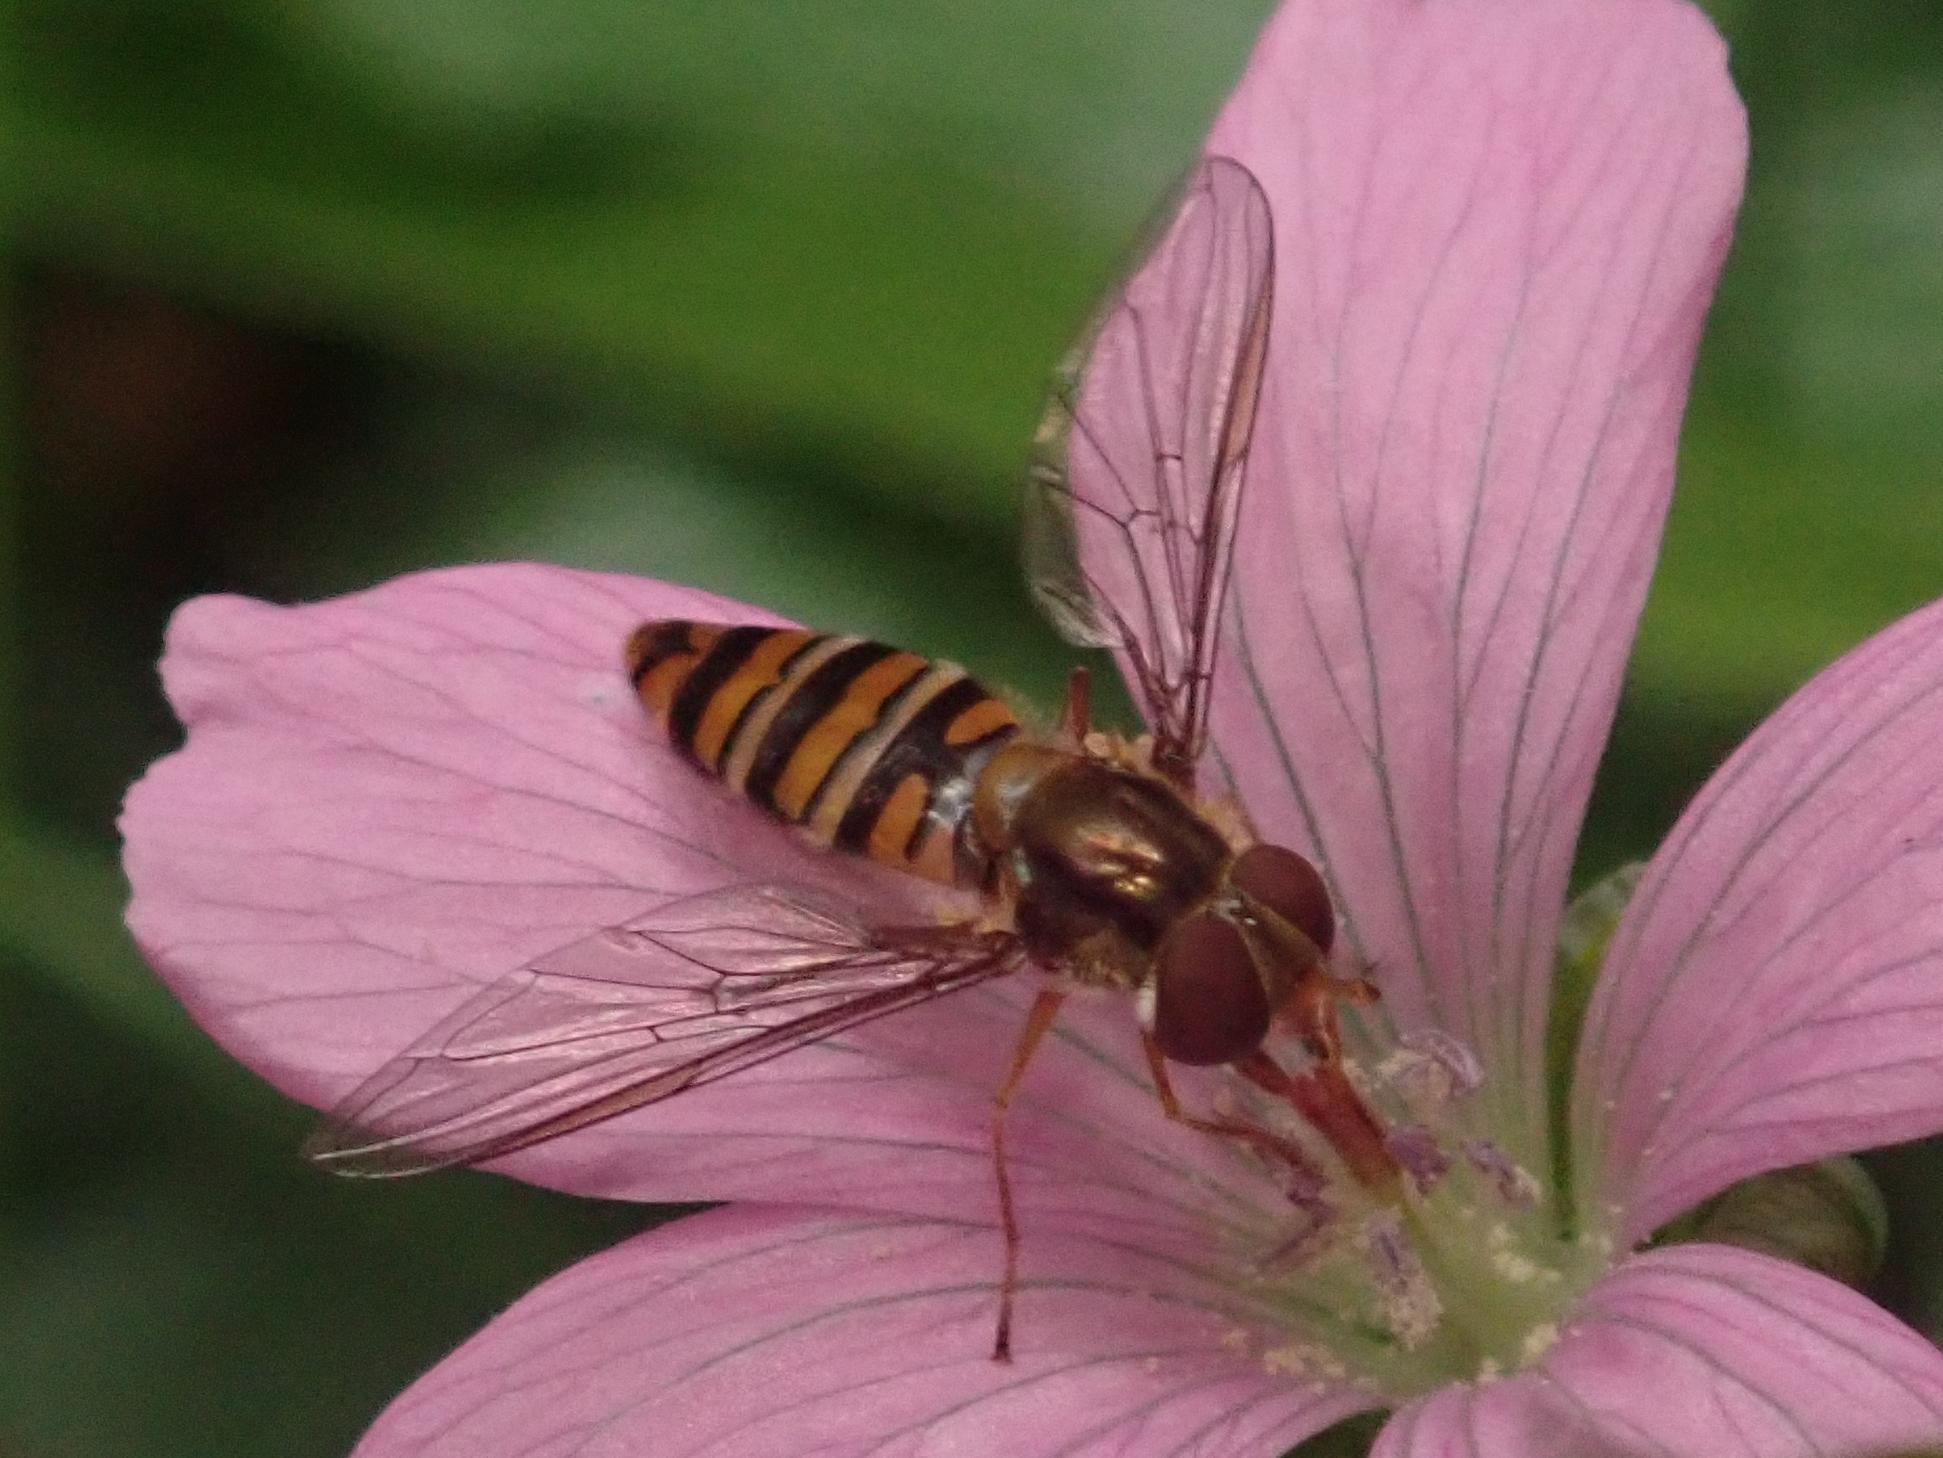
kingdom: Animalia
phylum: Arthropoda
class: Insecta
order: Diptera
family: Syrphidae
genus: Episyrphus
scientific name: Episyrphus balteatus
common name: Marmalade hoverfly
